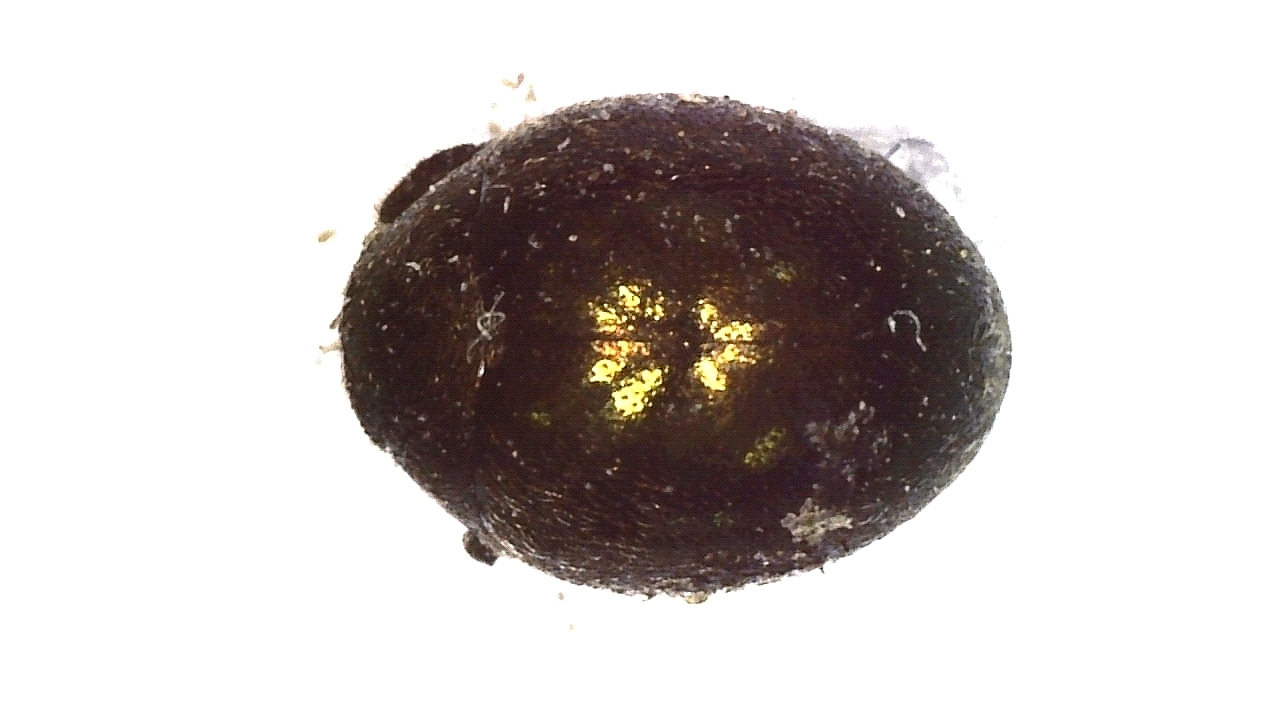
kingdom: Animalia
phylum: Arthropoda
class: Insecta
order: Coleoptera
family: Byrrhidae
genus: Lamprobyrrhulus
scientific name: Lamprobyrrhulus nitidus
